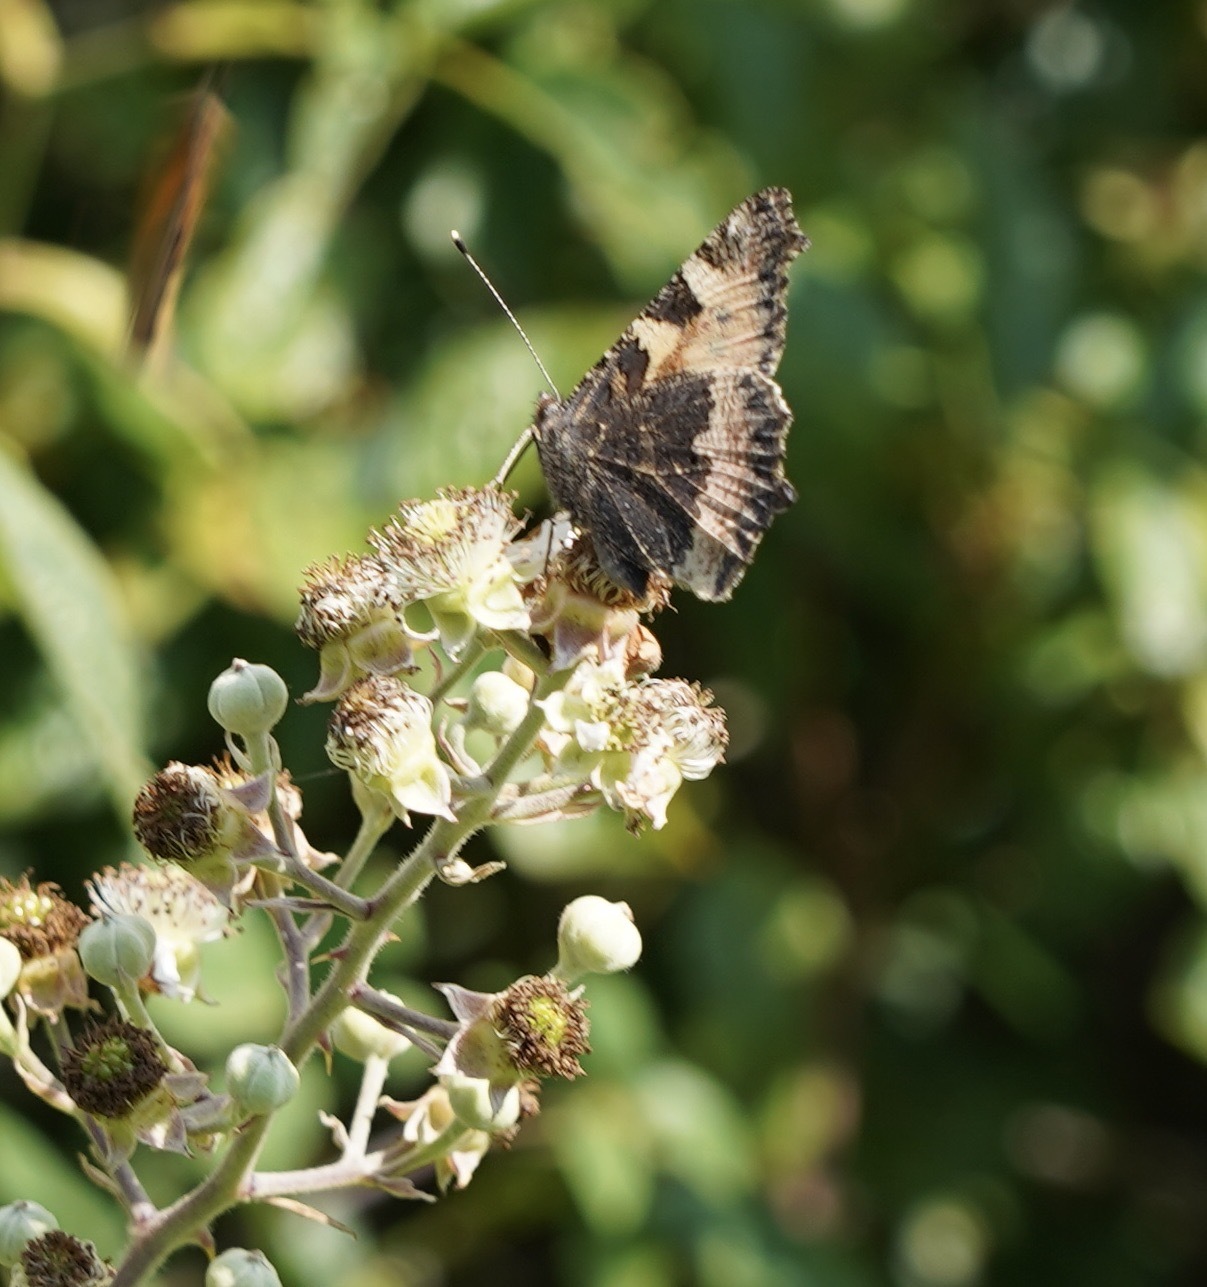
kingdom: Animalia
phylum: Arthropoda
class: Insecta
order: Lepidoptera
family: Nymphalidae
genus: Aglais
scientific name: Aglais urticae
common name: Small tortoiseshell
